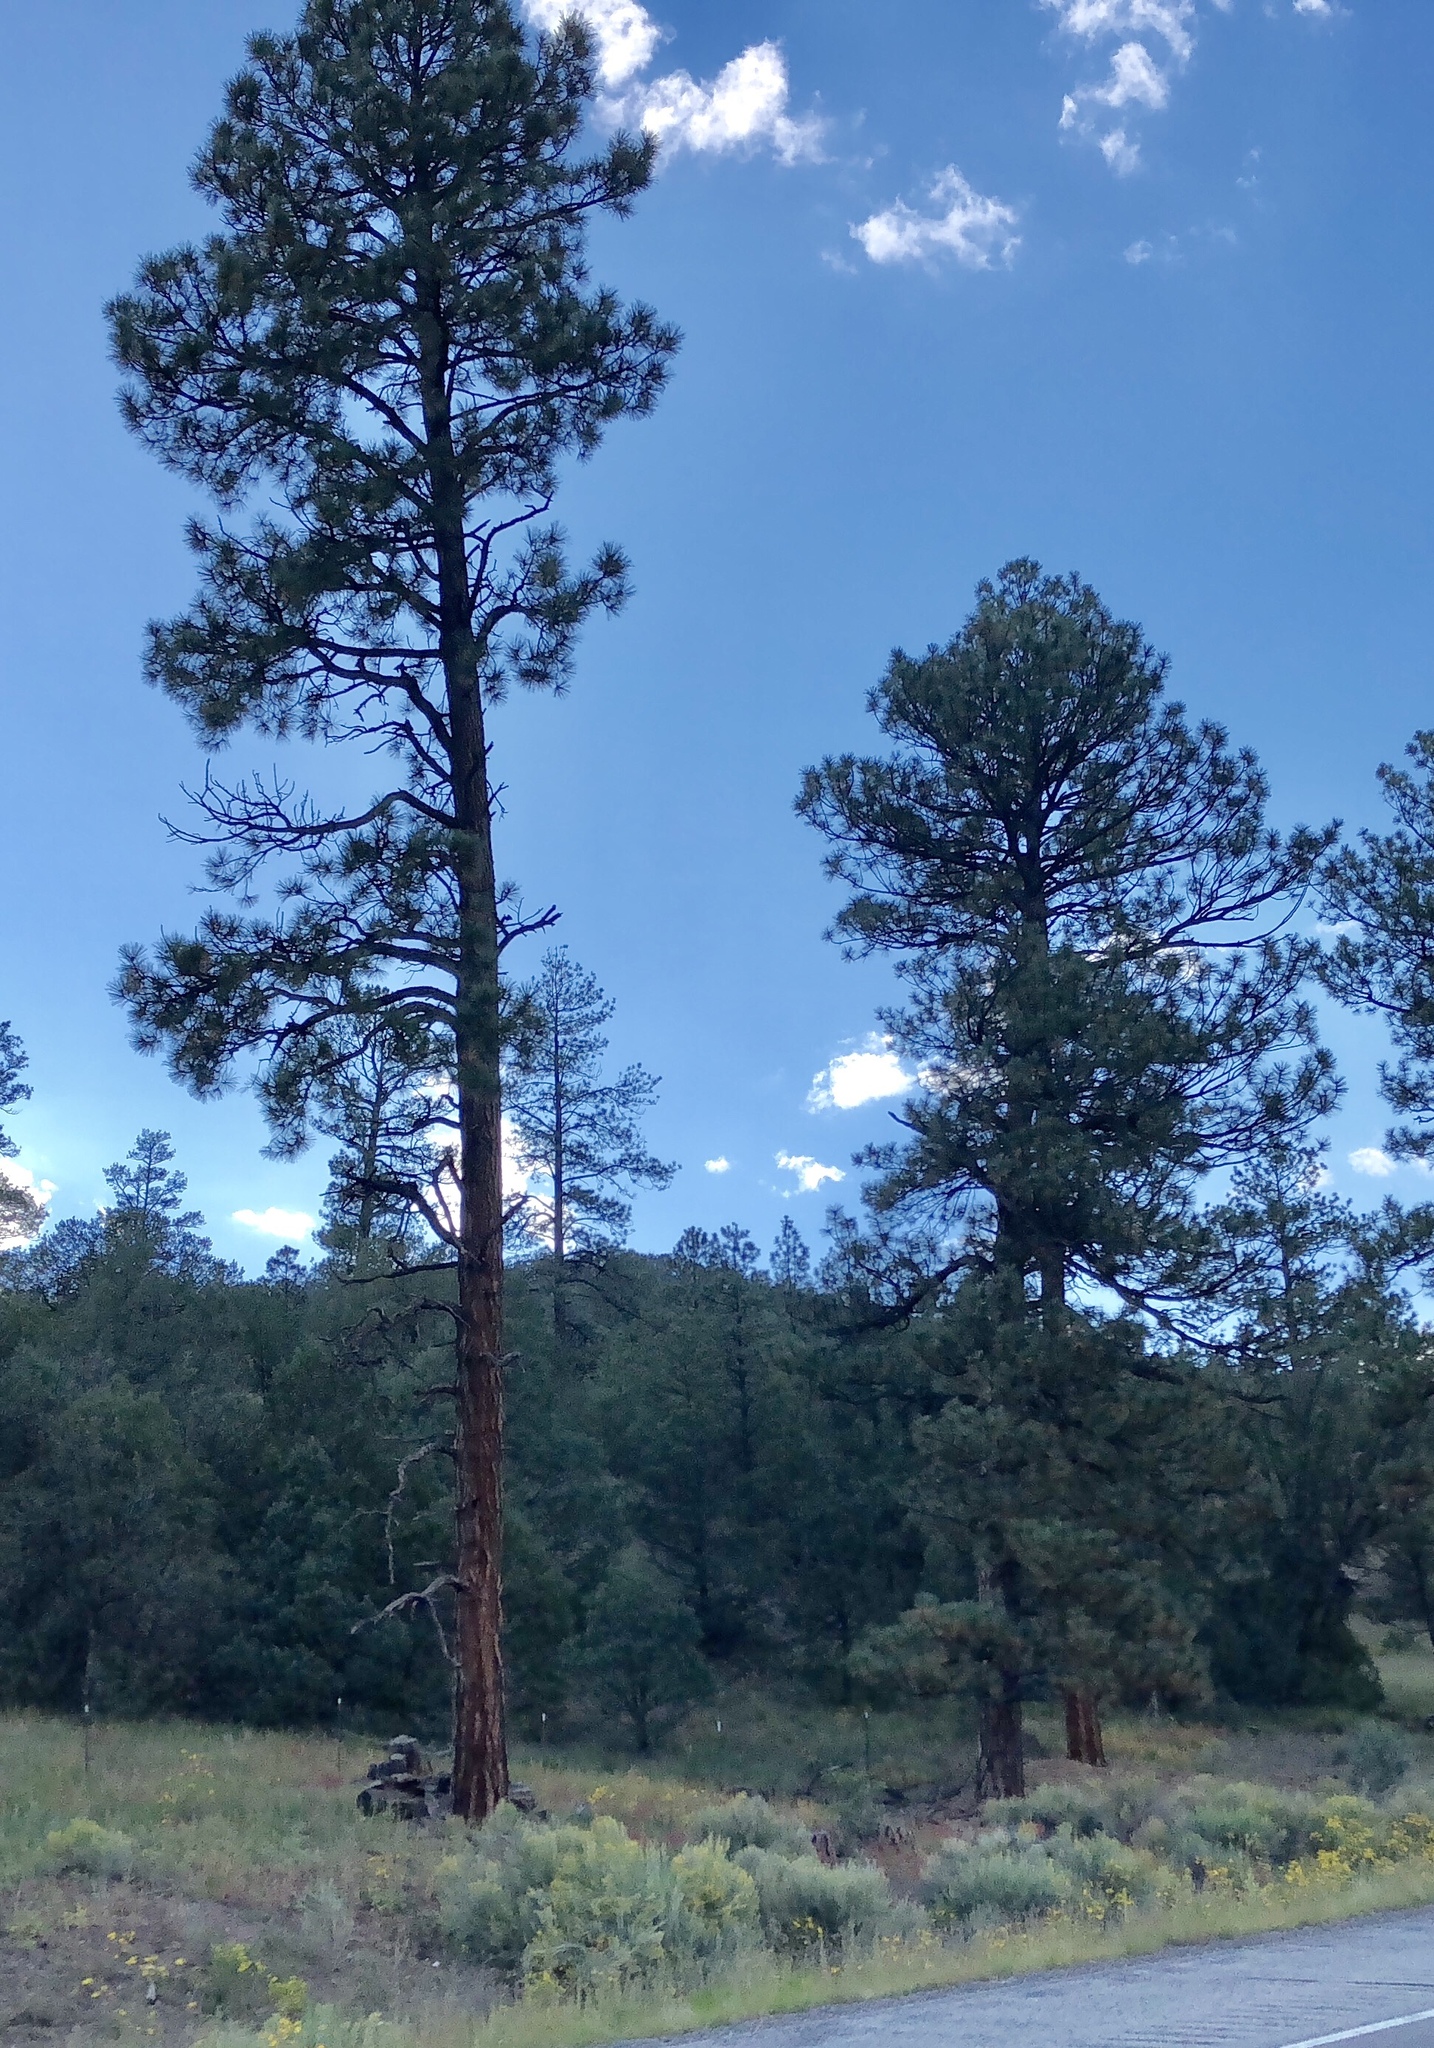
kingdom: Plantae
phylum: Tracheophyta
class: Pinopsida
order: Pinales
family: Pinaceae
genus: Pinus
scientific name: Pinus ponderosa
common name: Western yellow-pine
